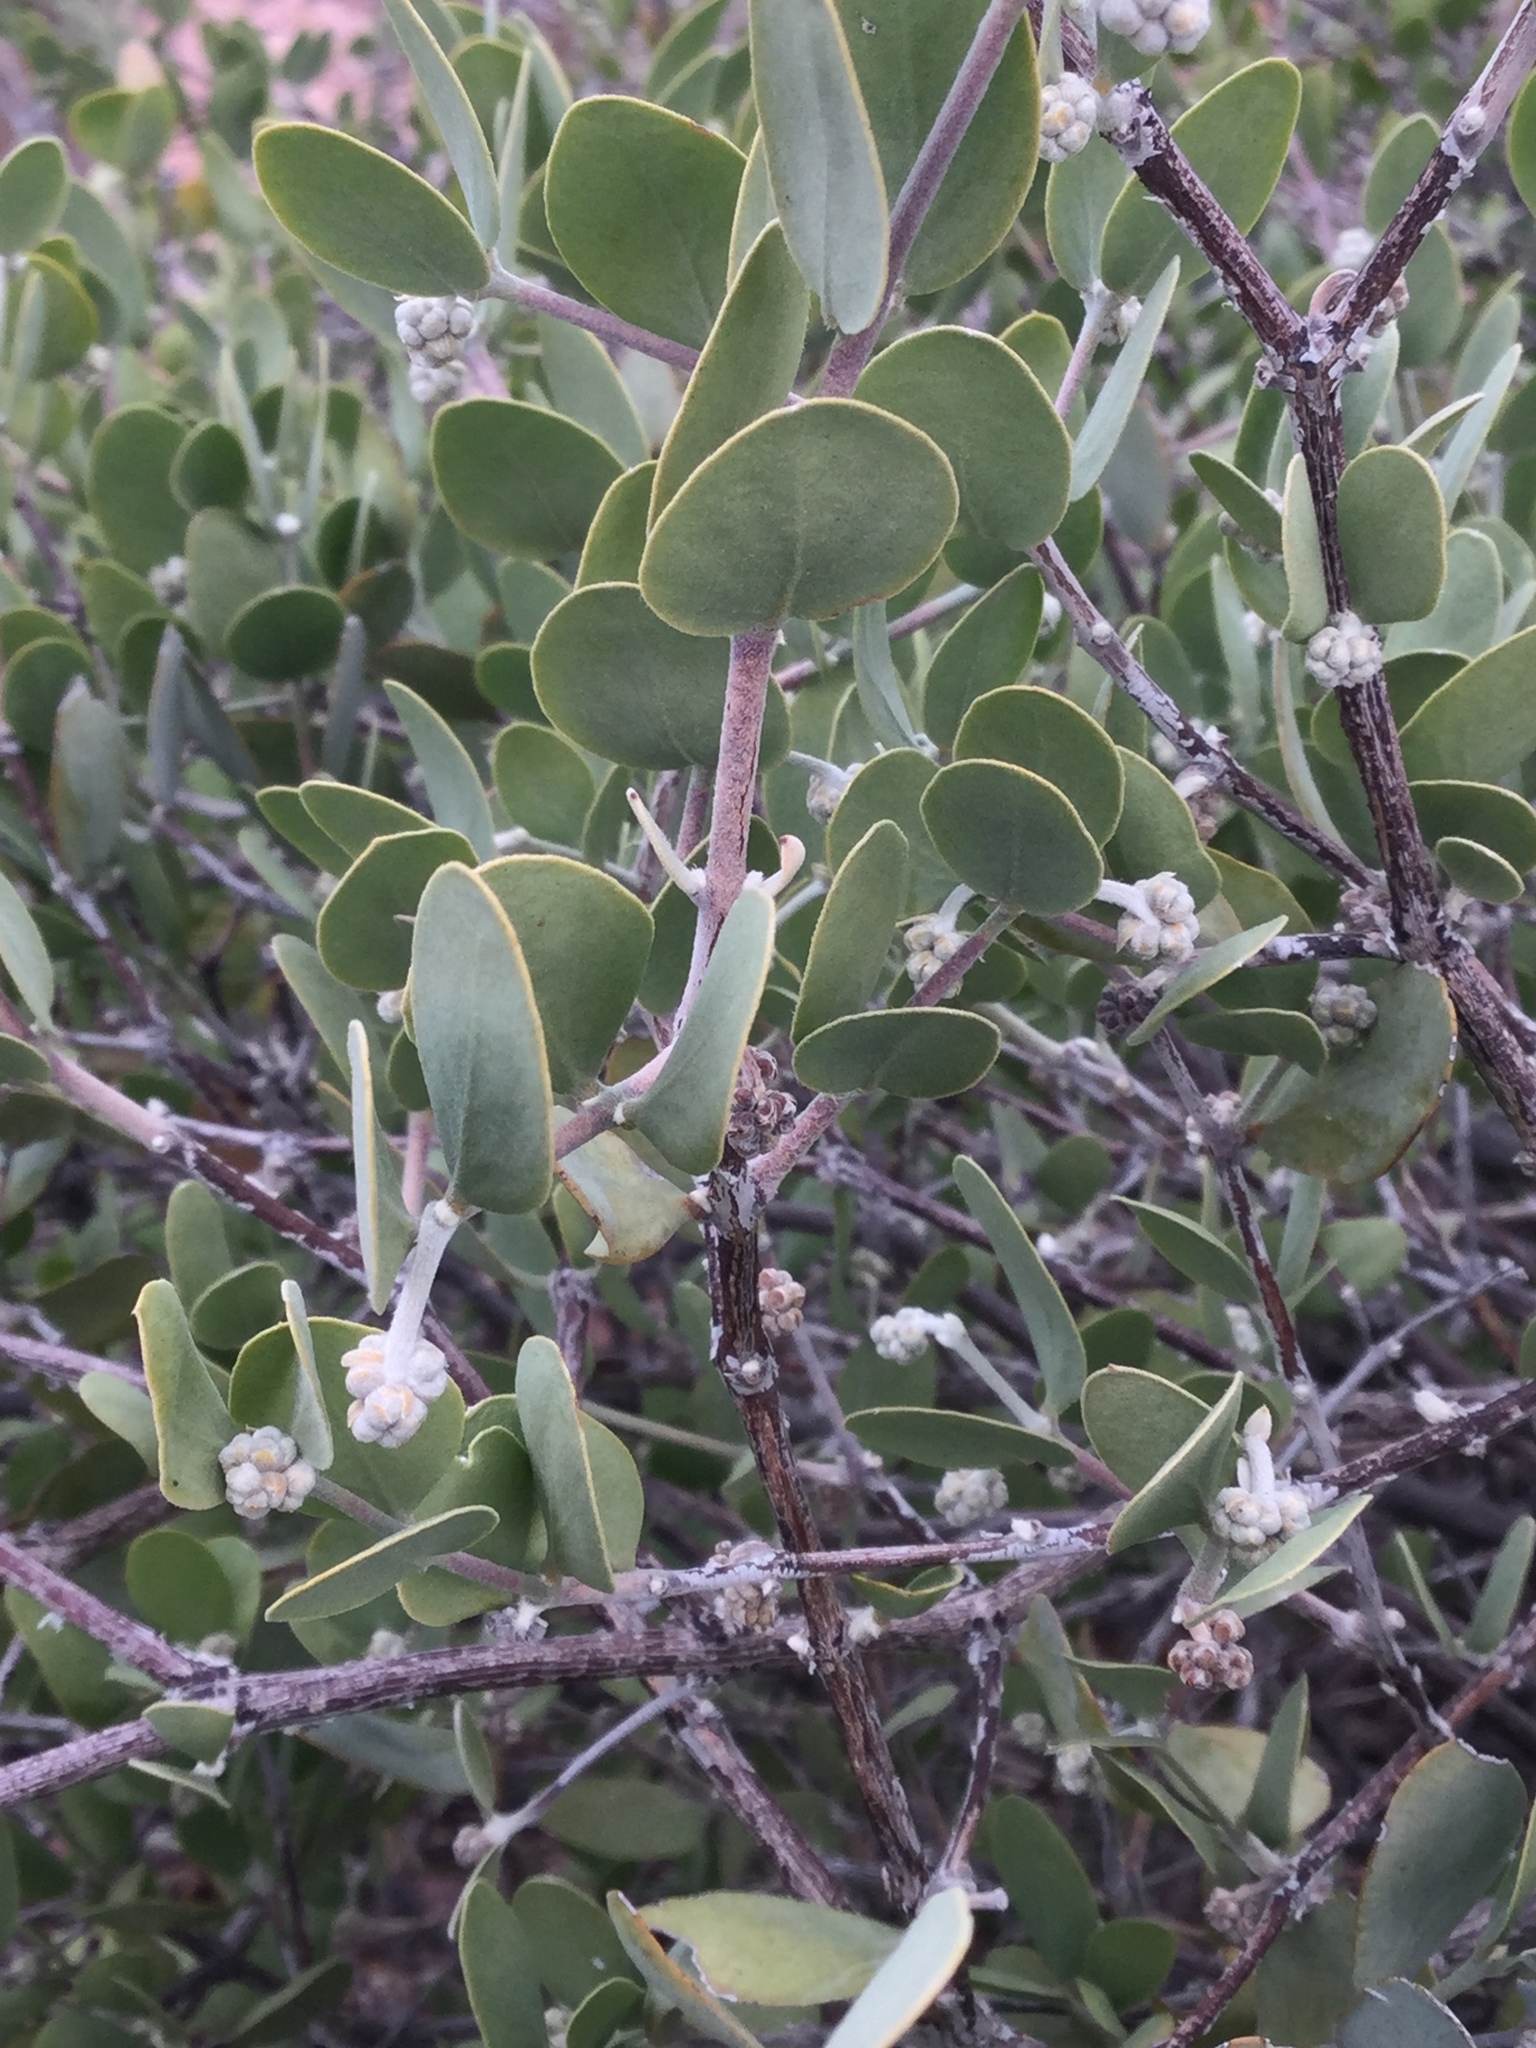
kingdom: Plantae
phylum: Tracheophyta
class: Magnoliopsida
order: Caryophyllales
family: Simmondsiaceae
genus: Simmondsia
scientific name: Simmondsia chinensis
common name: Jojoba
